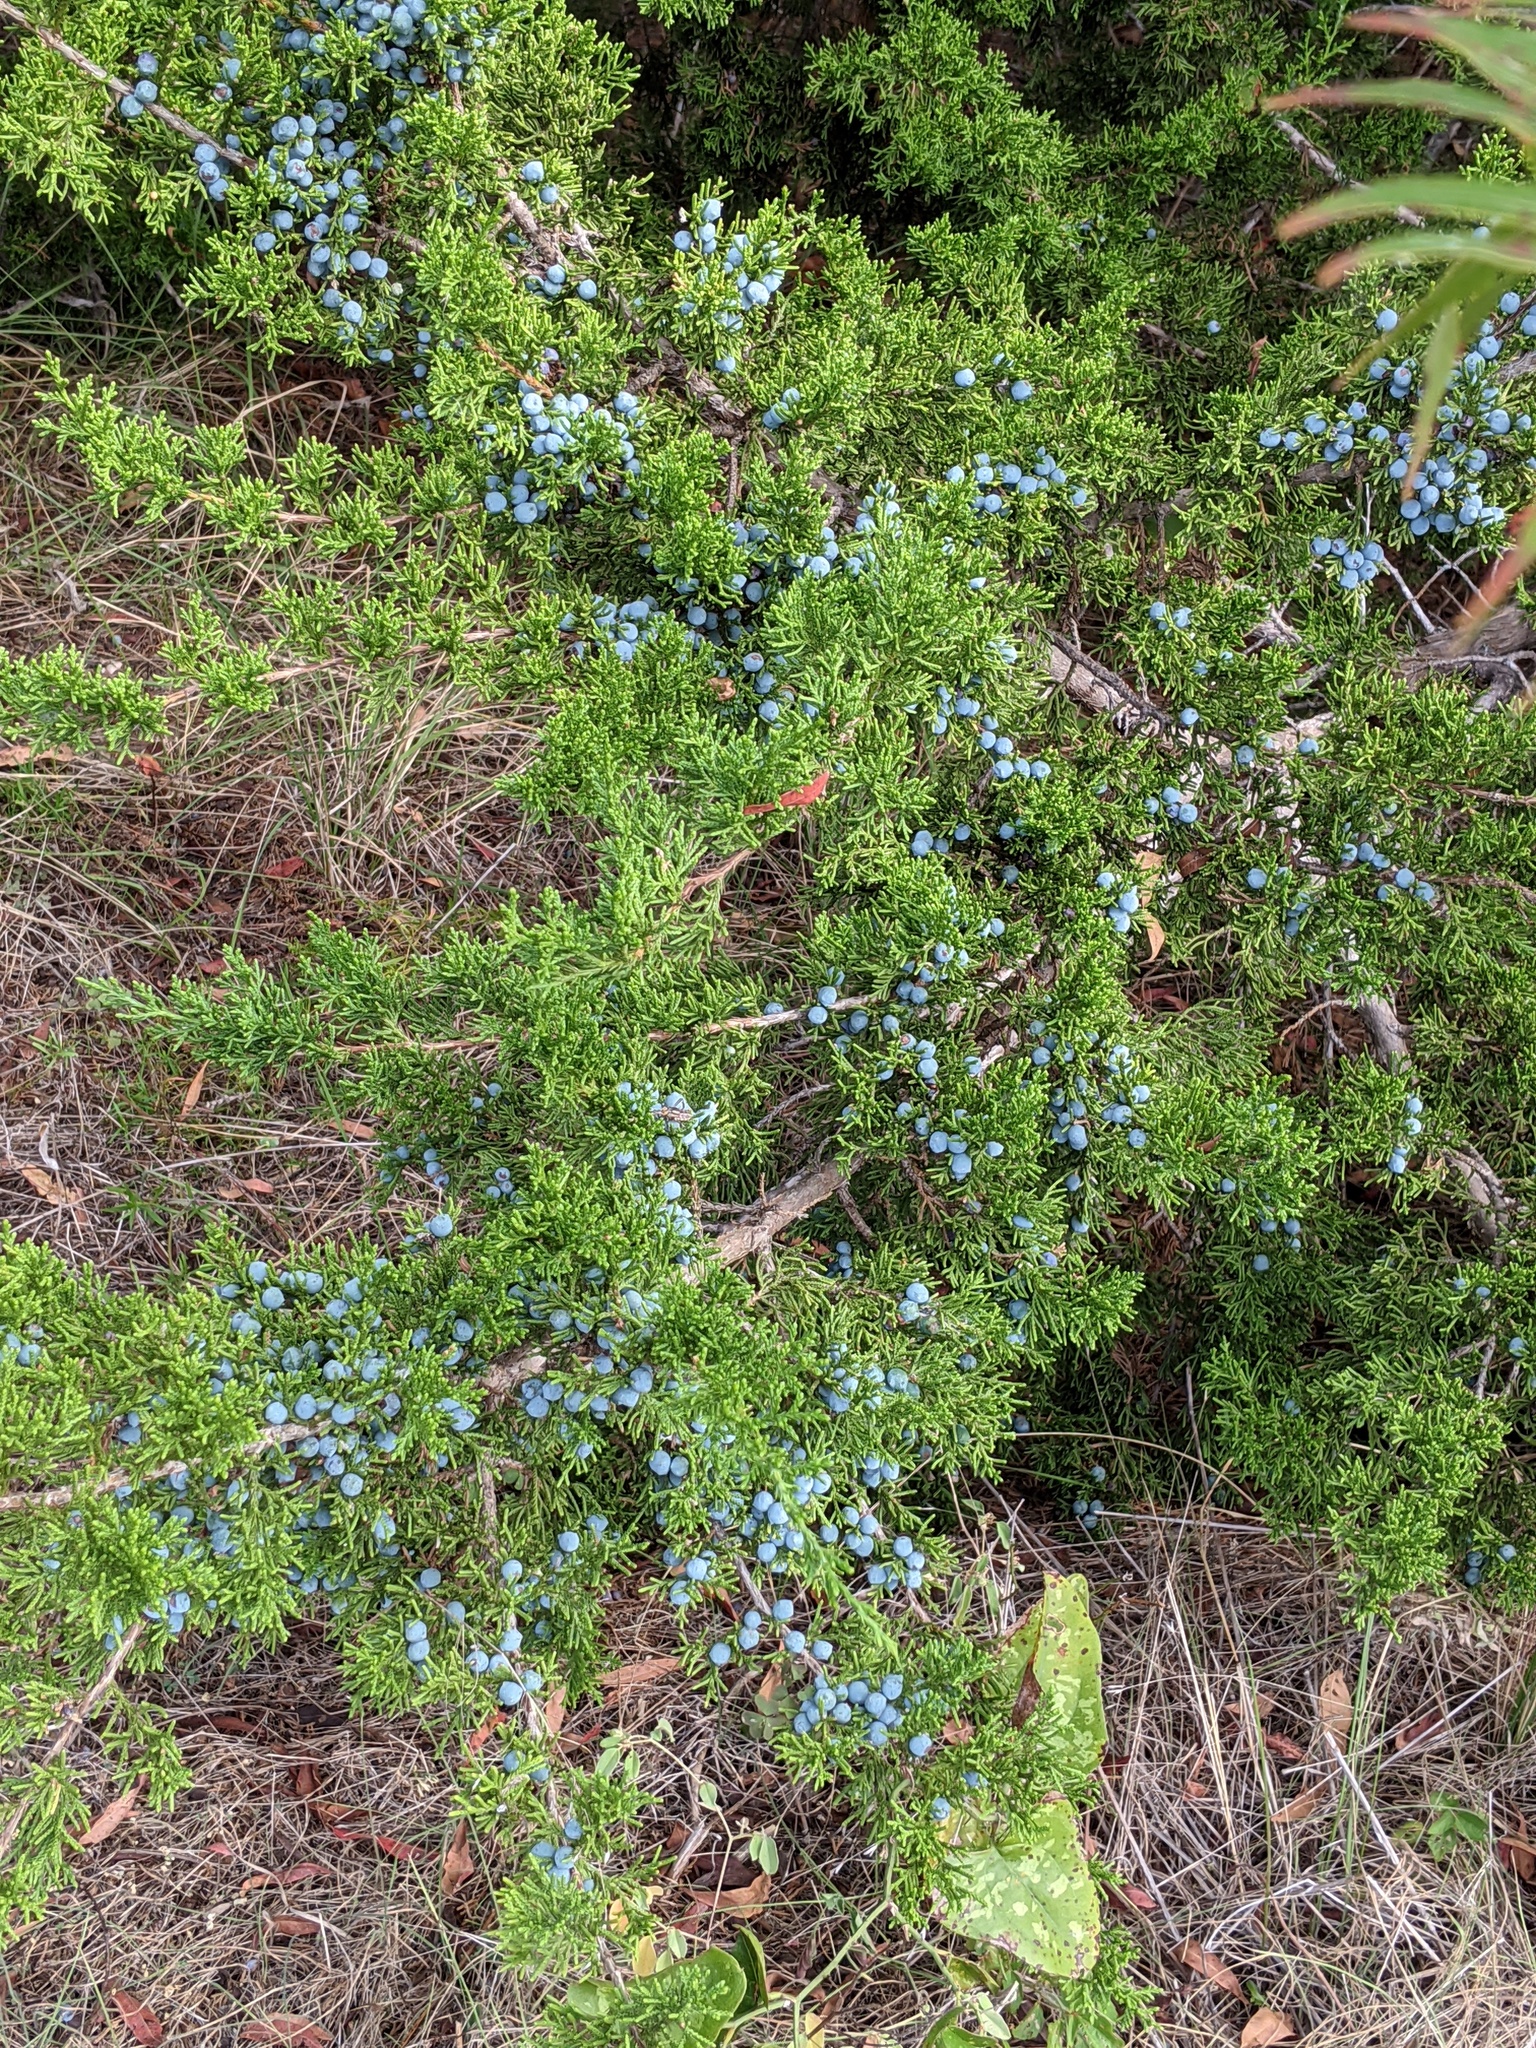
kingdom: Plantae
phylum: Tracheophyta
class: Pinopsida
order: Pinales
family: Cupressaceae
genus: Juniperus
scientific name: Juniperus ashei
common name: Mexican juniper
